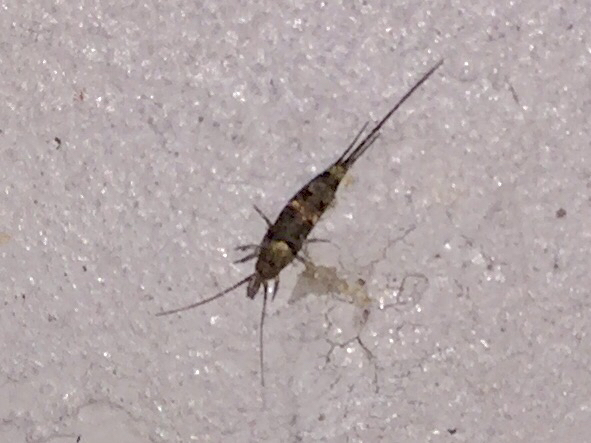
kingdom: Animalia
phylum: Arthropoda
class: Insecta
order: Archaeognatha
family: Machilidae
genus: Trigoniophthalmus
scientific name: Trigoniophthalmus alternatus
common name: Jumping bristletail
